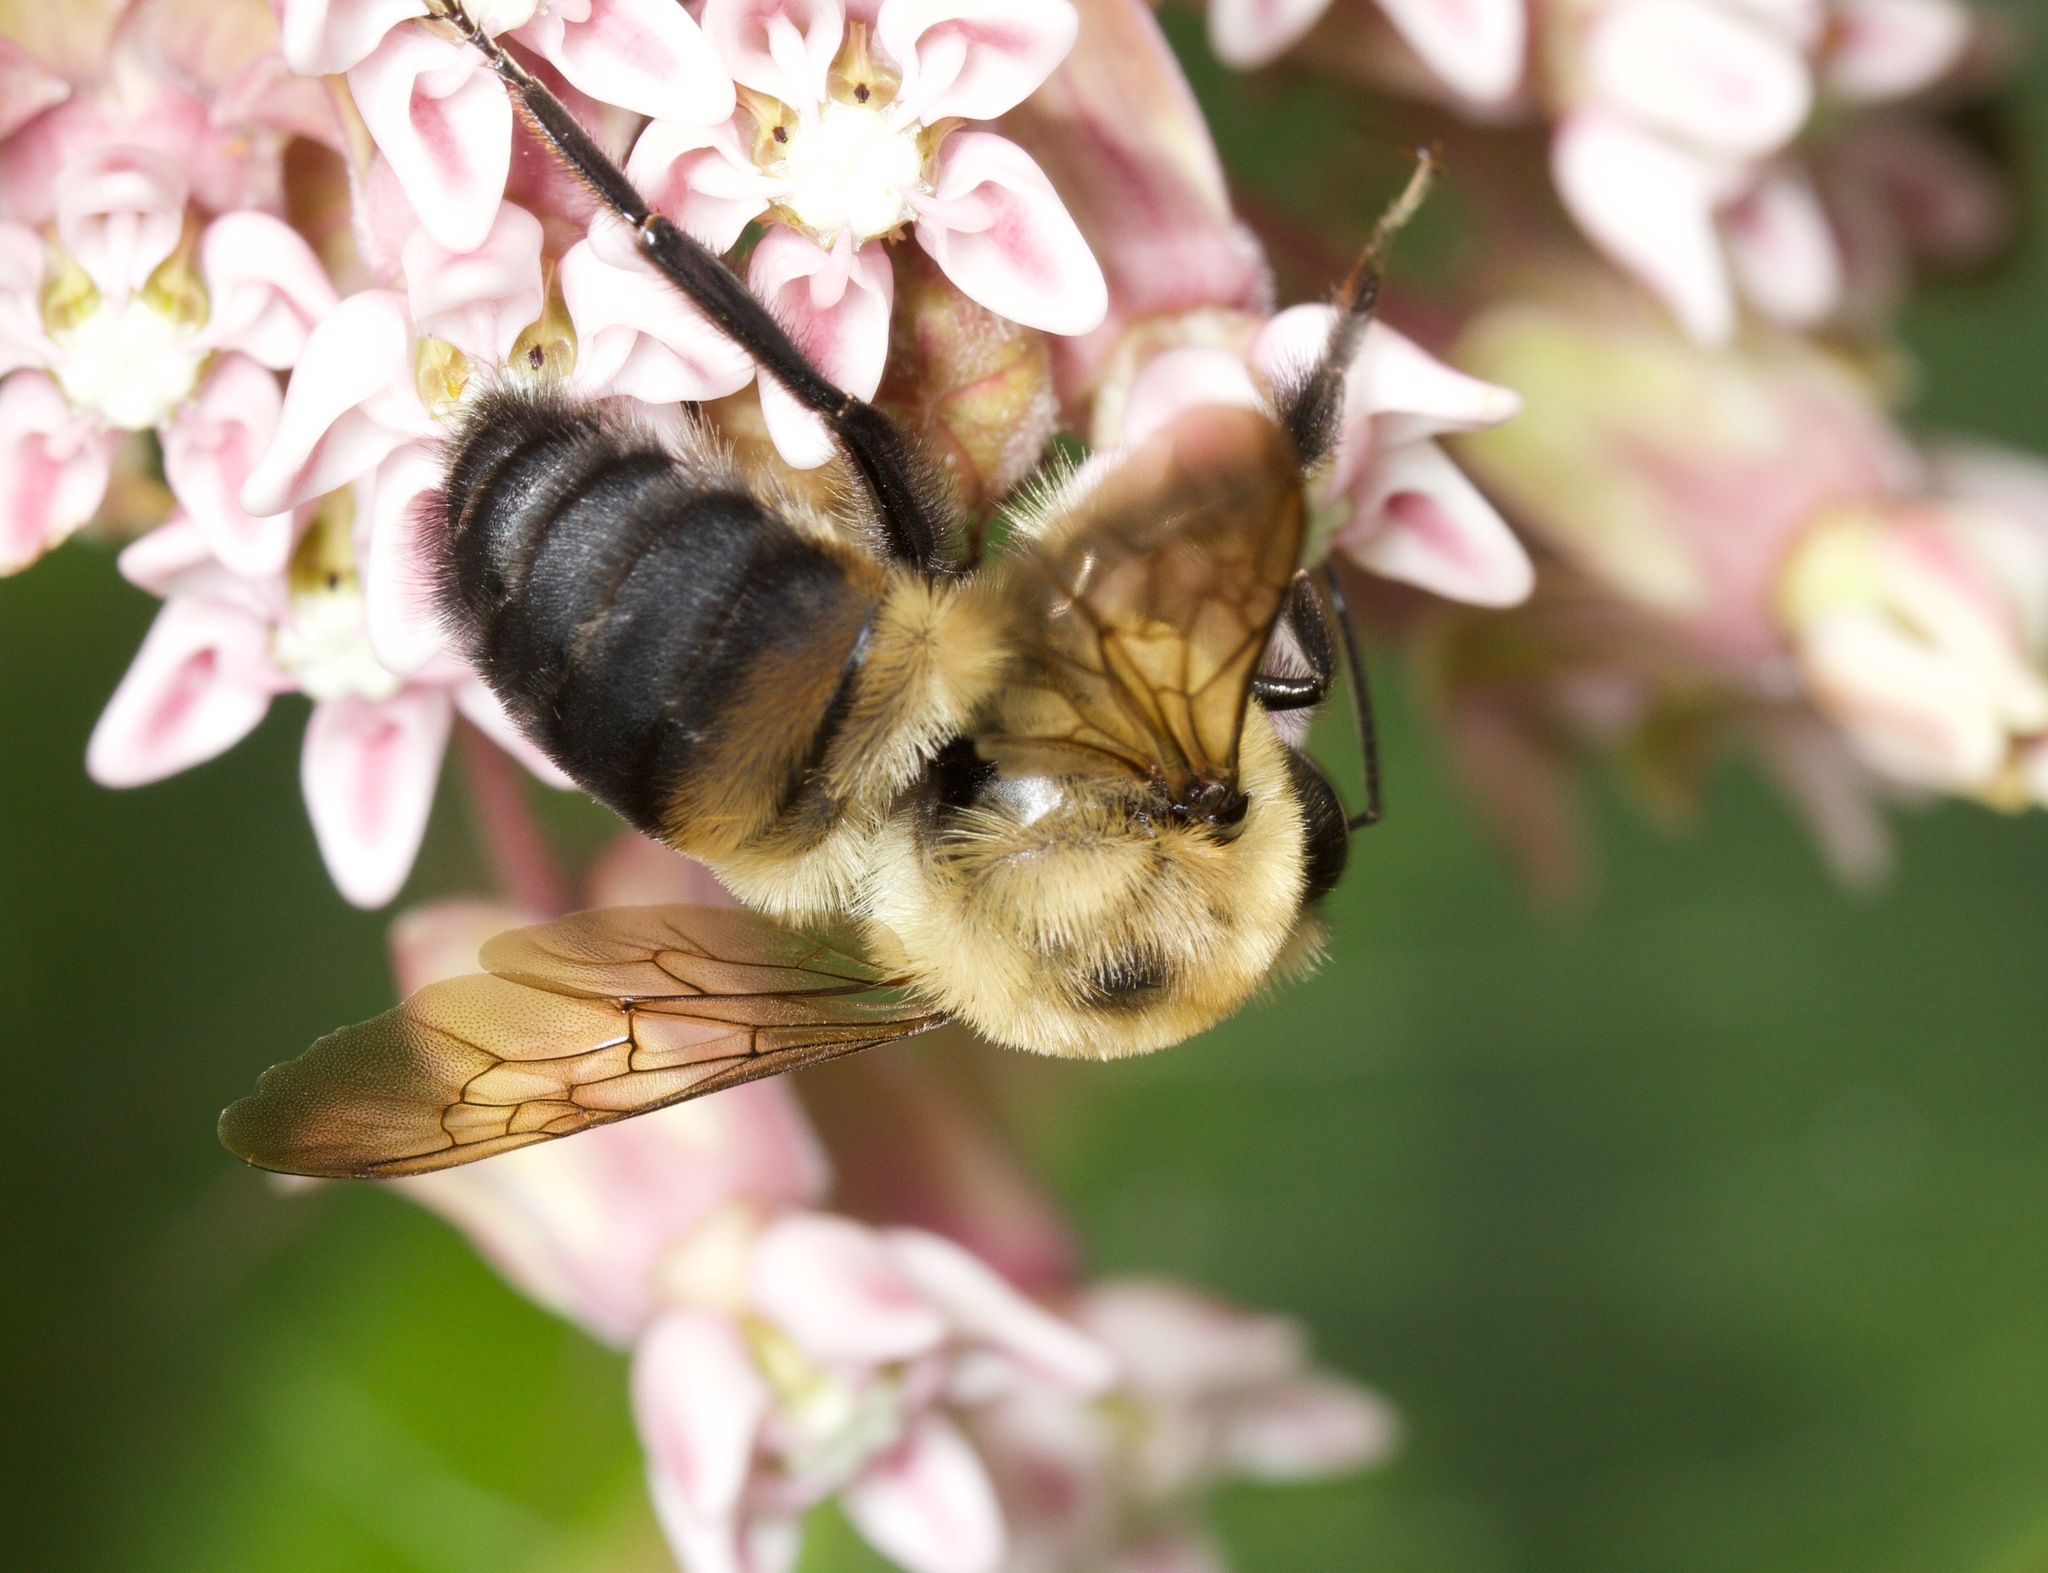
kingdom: Animalia
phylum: Arthropoda
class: Insecta
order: Hymenoptera
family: Apidae
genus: Bombus
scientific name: Bombus griseocollis
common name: Brown-belted bumble bee
